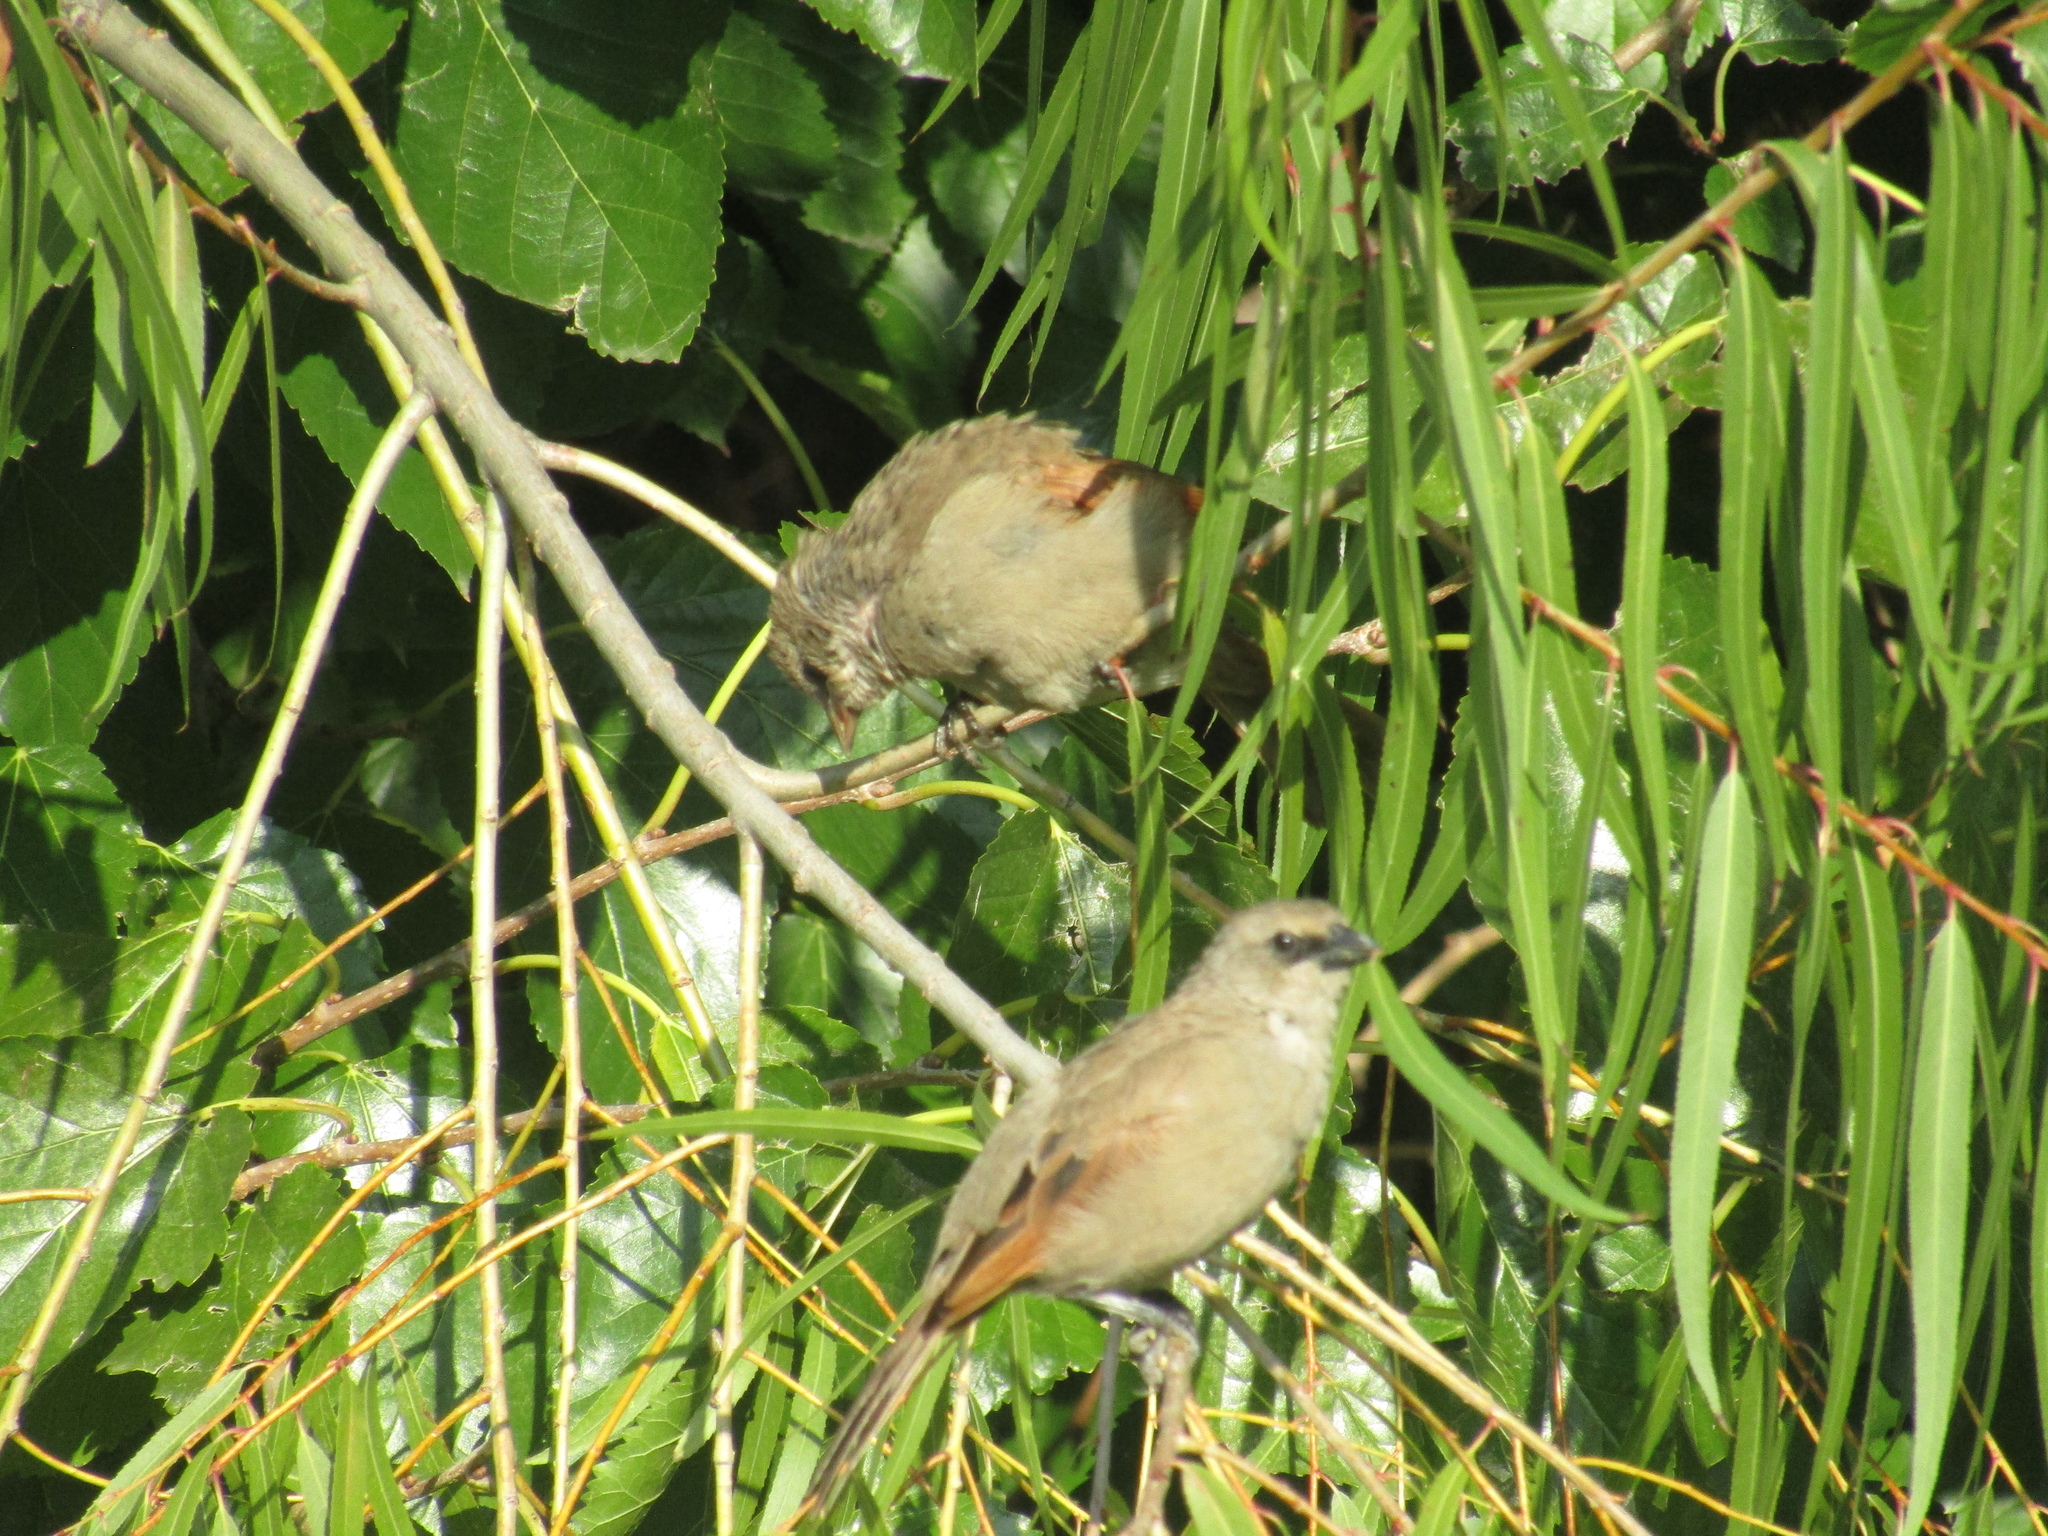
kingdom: Animalia
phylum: Chordata
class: Aves
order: Passeriformes
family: Icteridae
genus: Agelaioides
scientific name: Agelaioides badius
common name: Baywing
